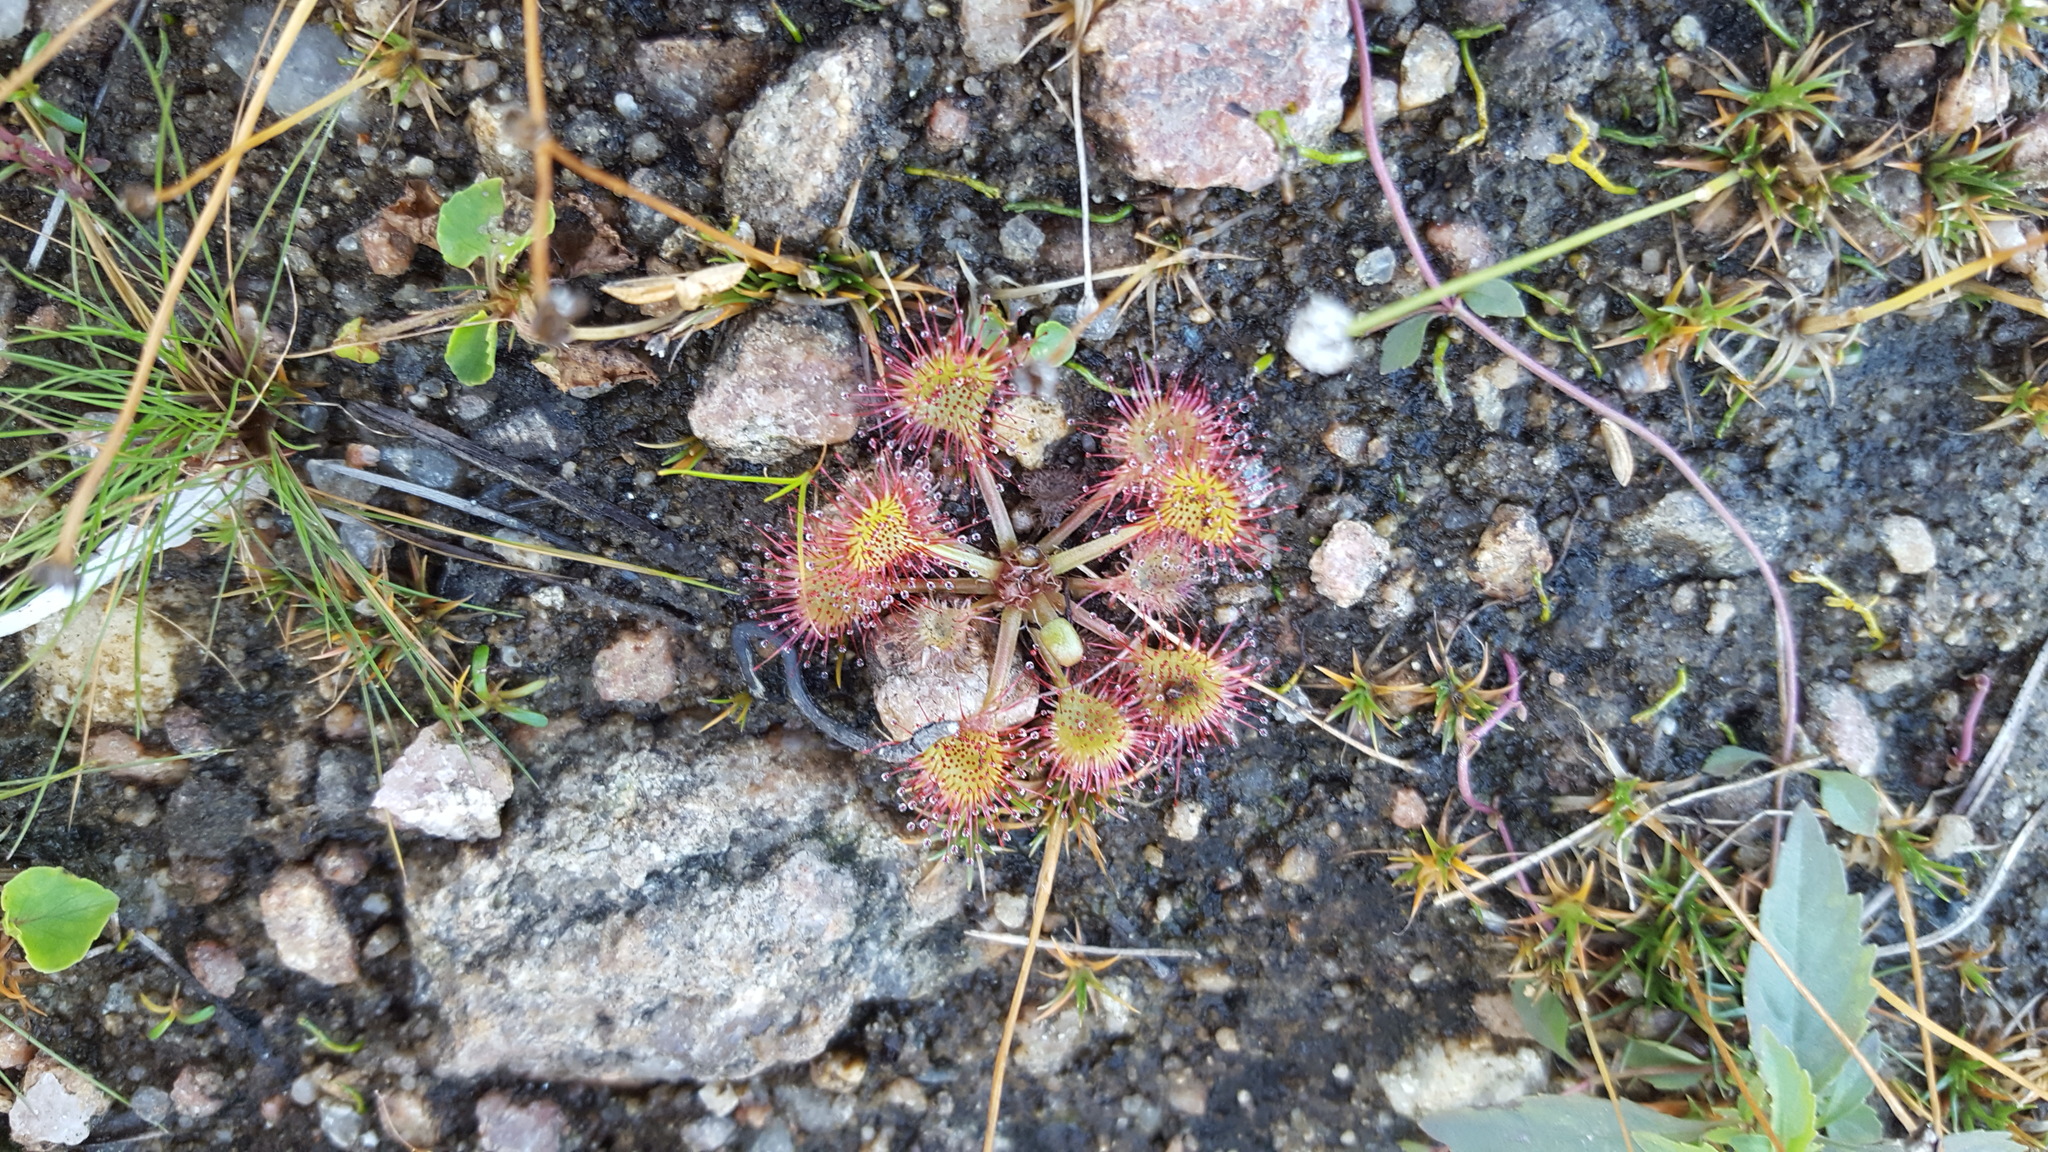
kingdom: Plantae
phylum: Tracheophyta
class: Magnoliopsida
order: Caryophyllales
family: Droseraceae
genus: Drosera
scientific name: Drosera rotundifolia
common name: Round-leaved sundew
